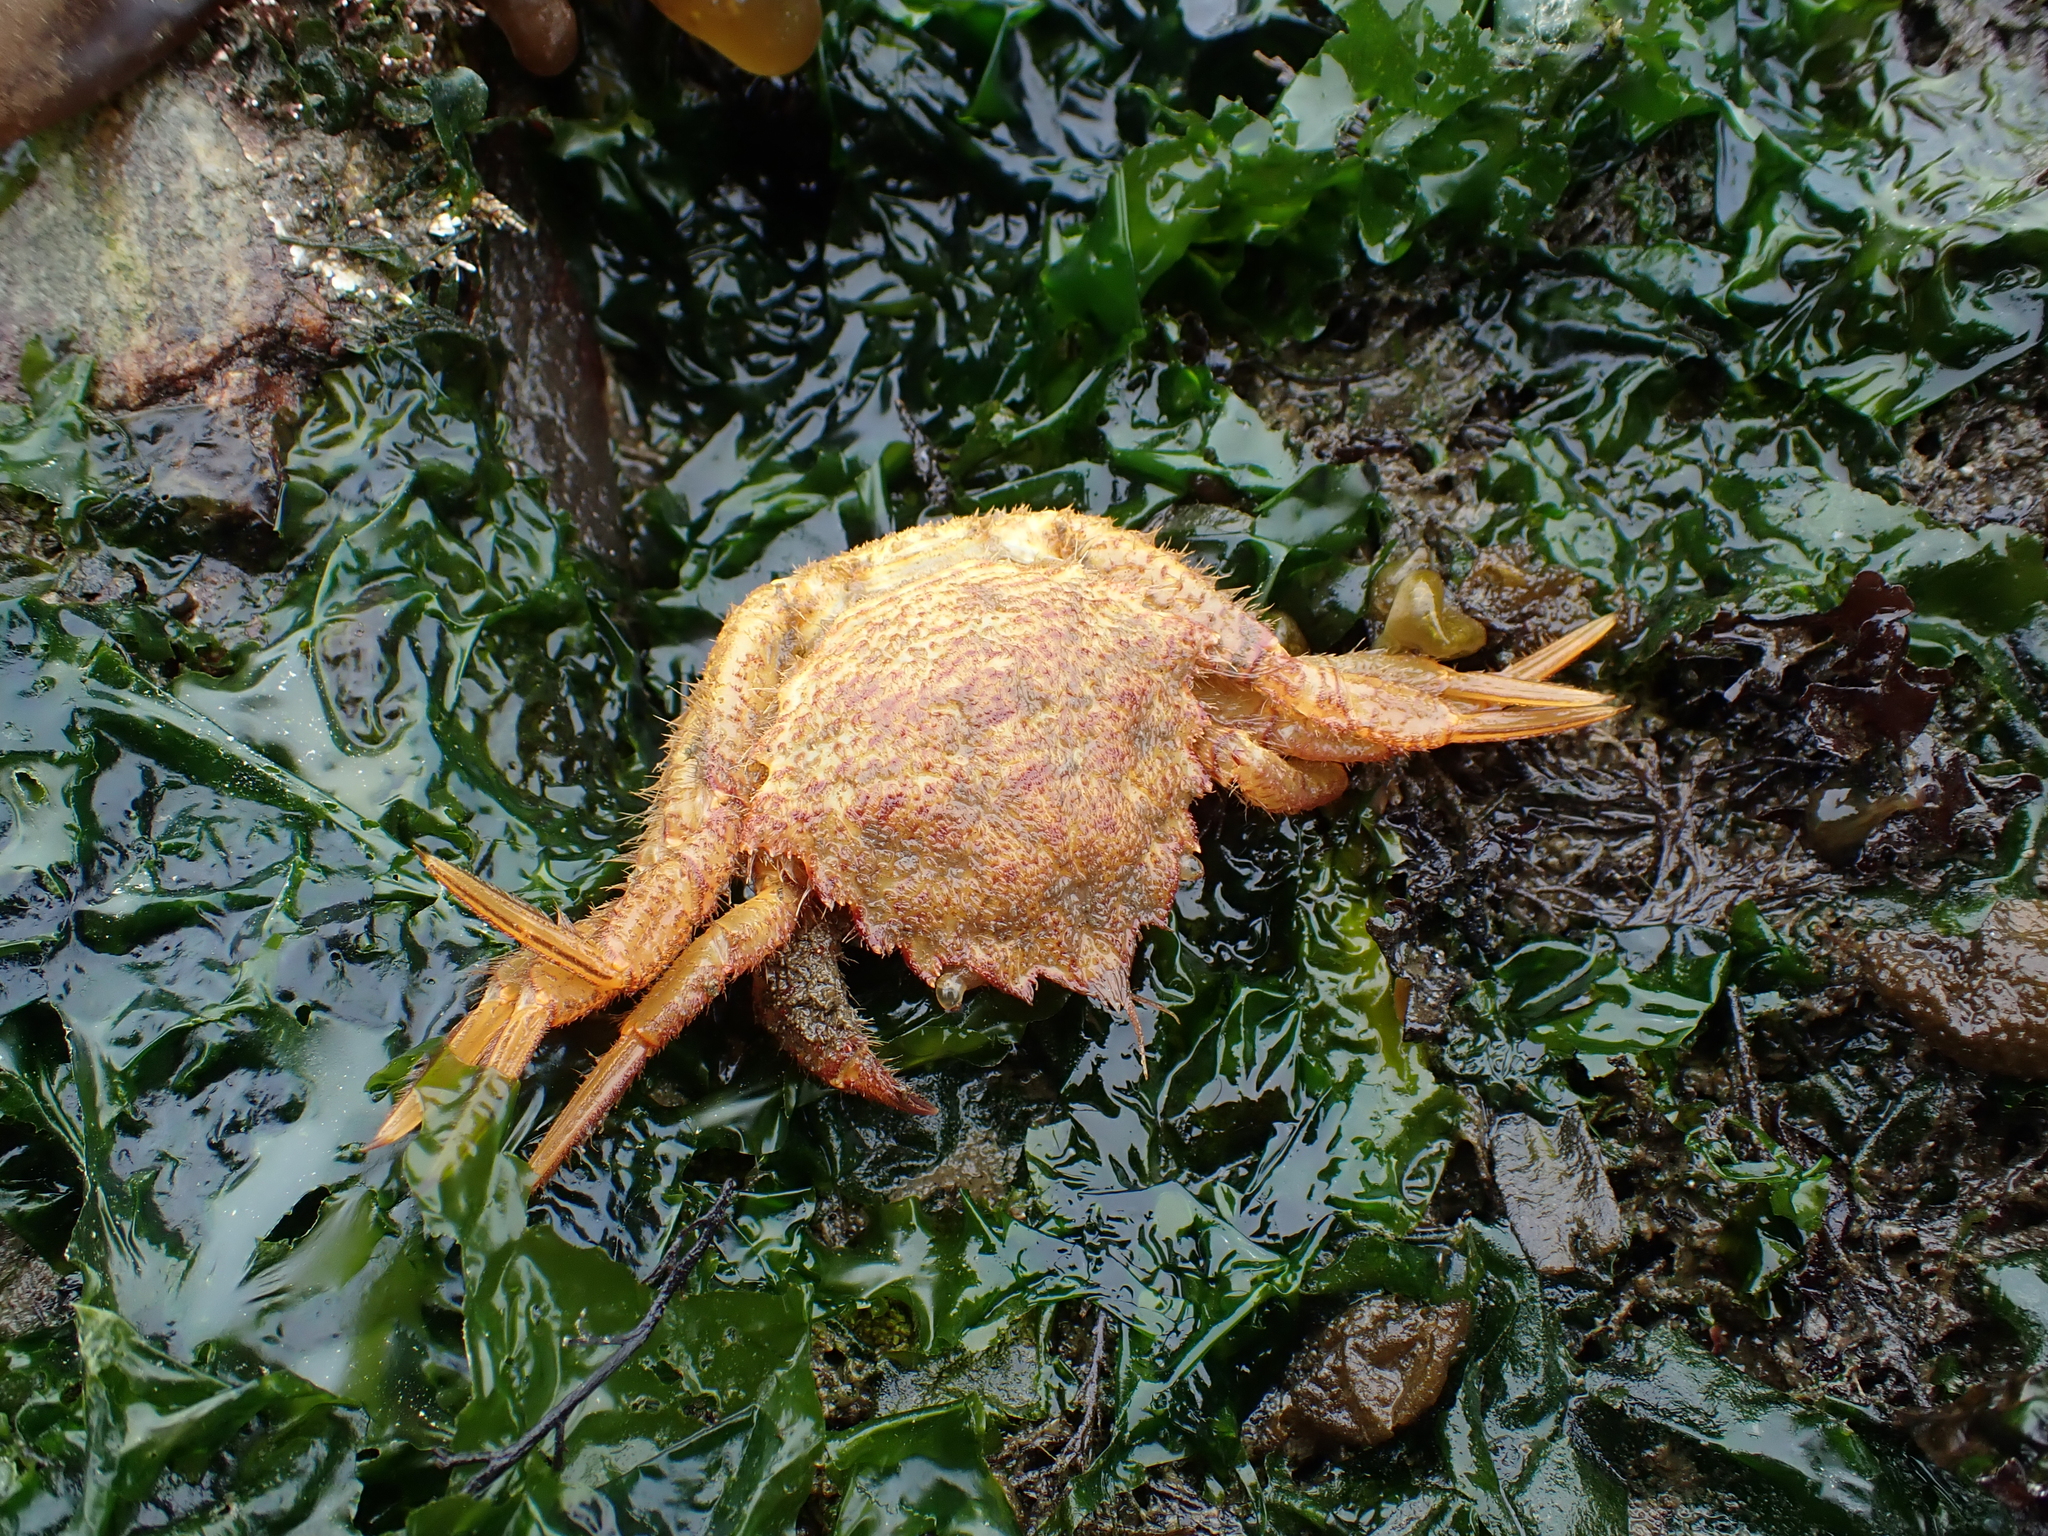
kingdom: Animalia
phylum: Arthropoda
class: Malacostraca
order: Decapoda
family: Cheiragonidae
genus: Telmessus
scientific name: Telmessus cheiragonus
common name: Helmet crab
